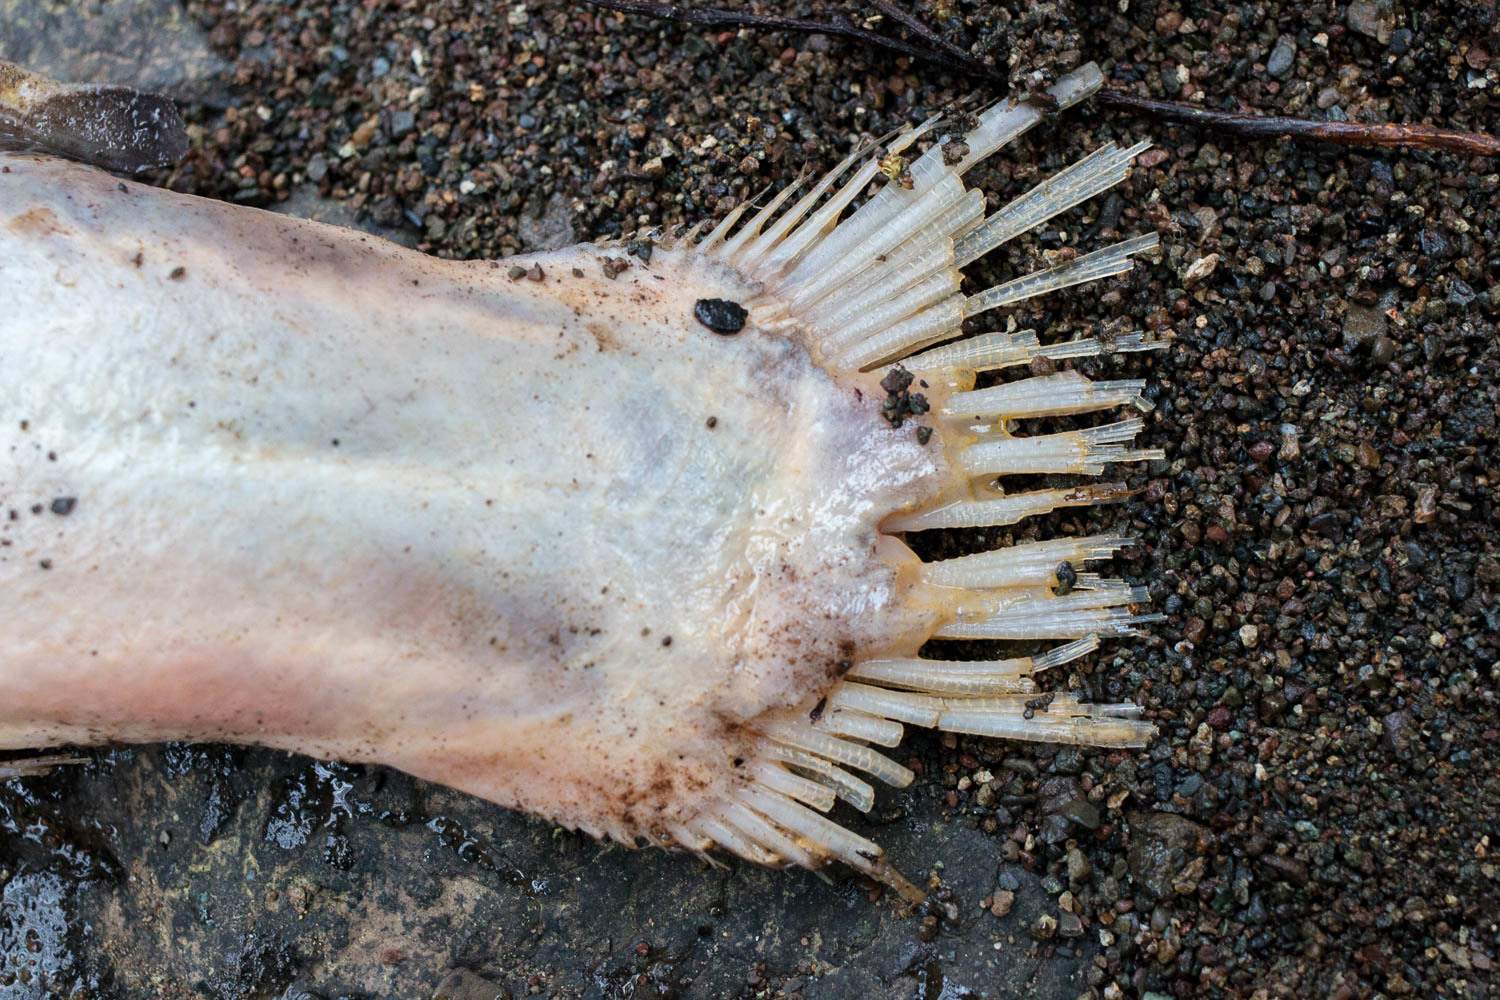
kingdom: Animalia
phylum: Chordata
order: Salmoniformes
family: Salmonidae
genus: Oncorhynchus
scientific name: Oncorhynchus kisutch
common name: Coho salmon
